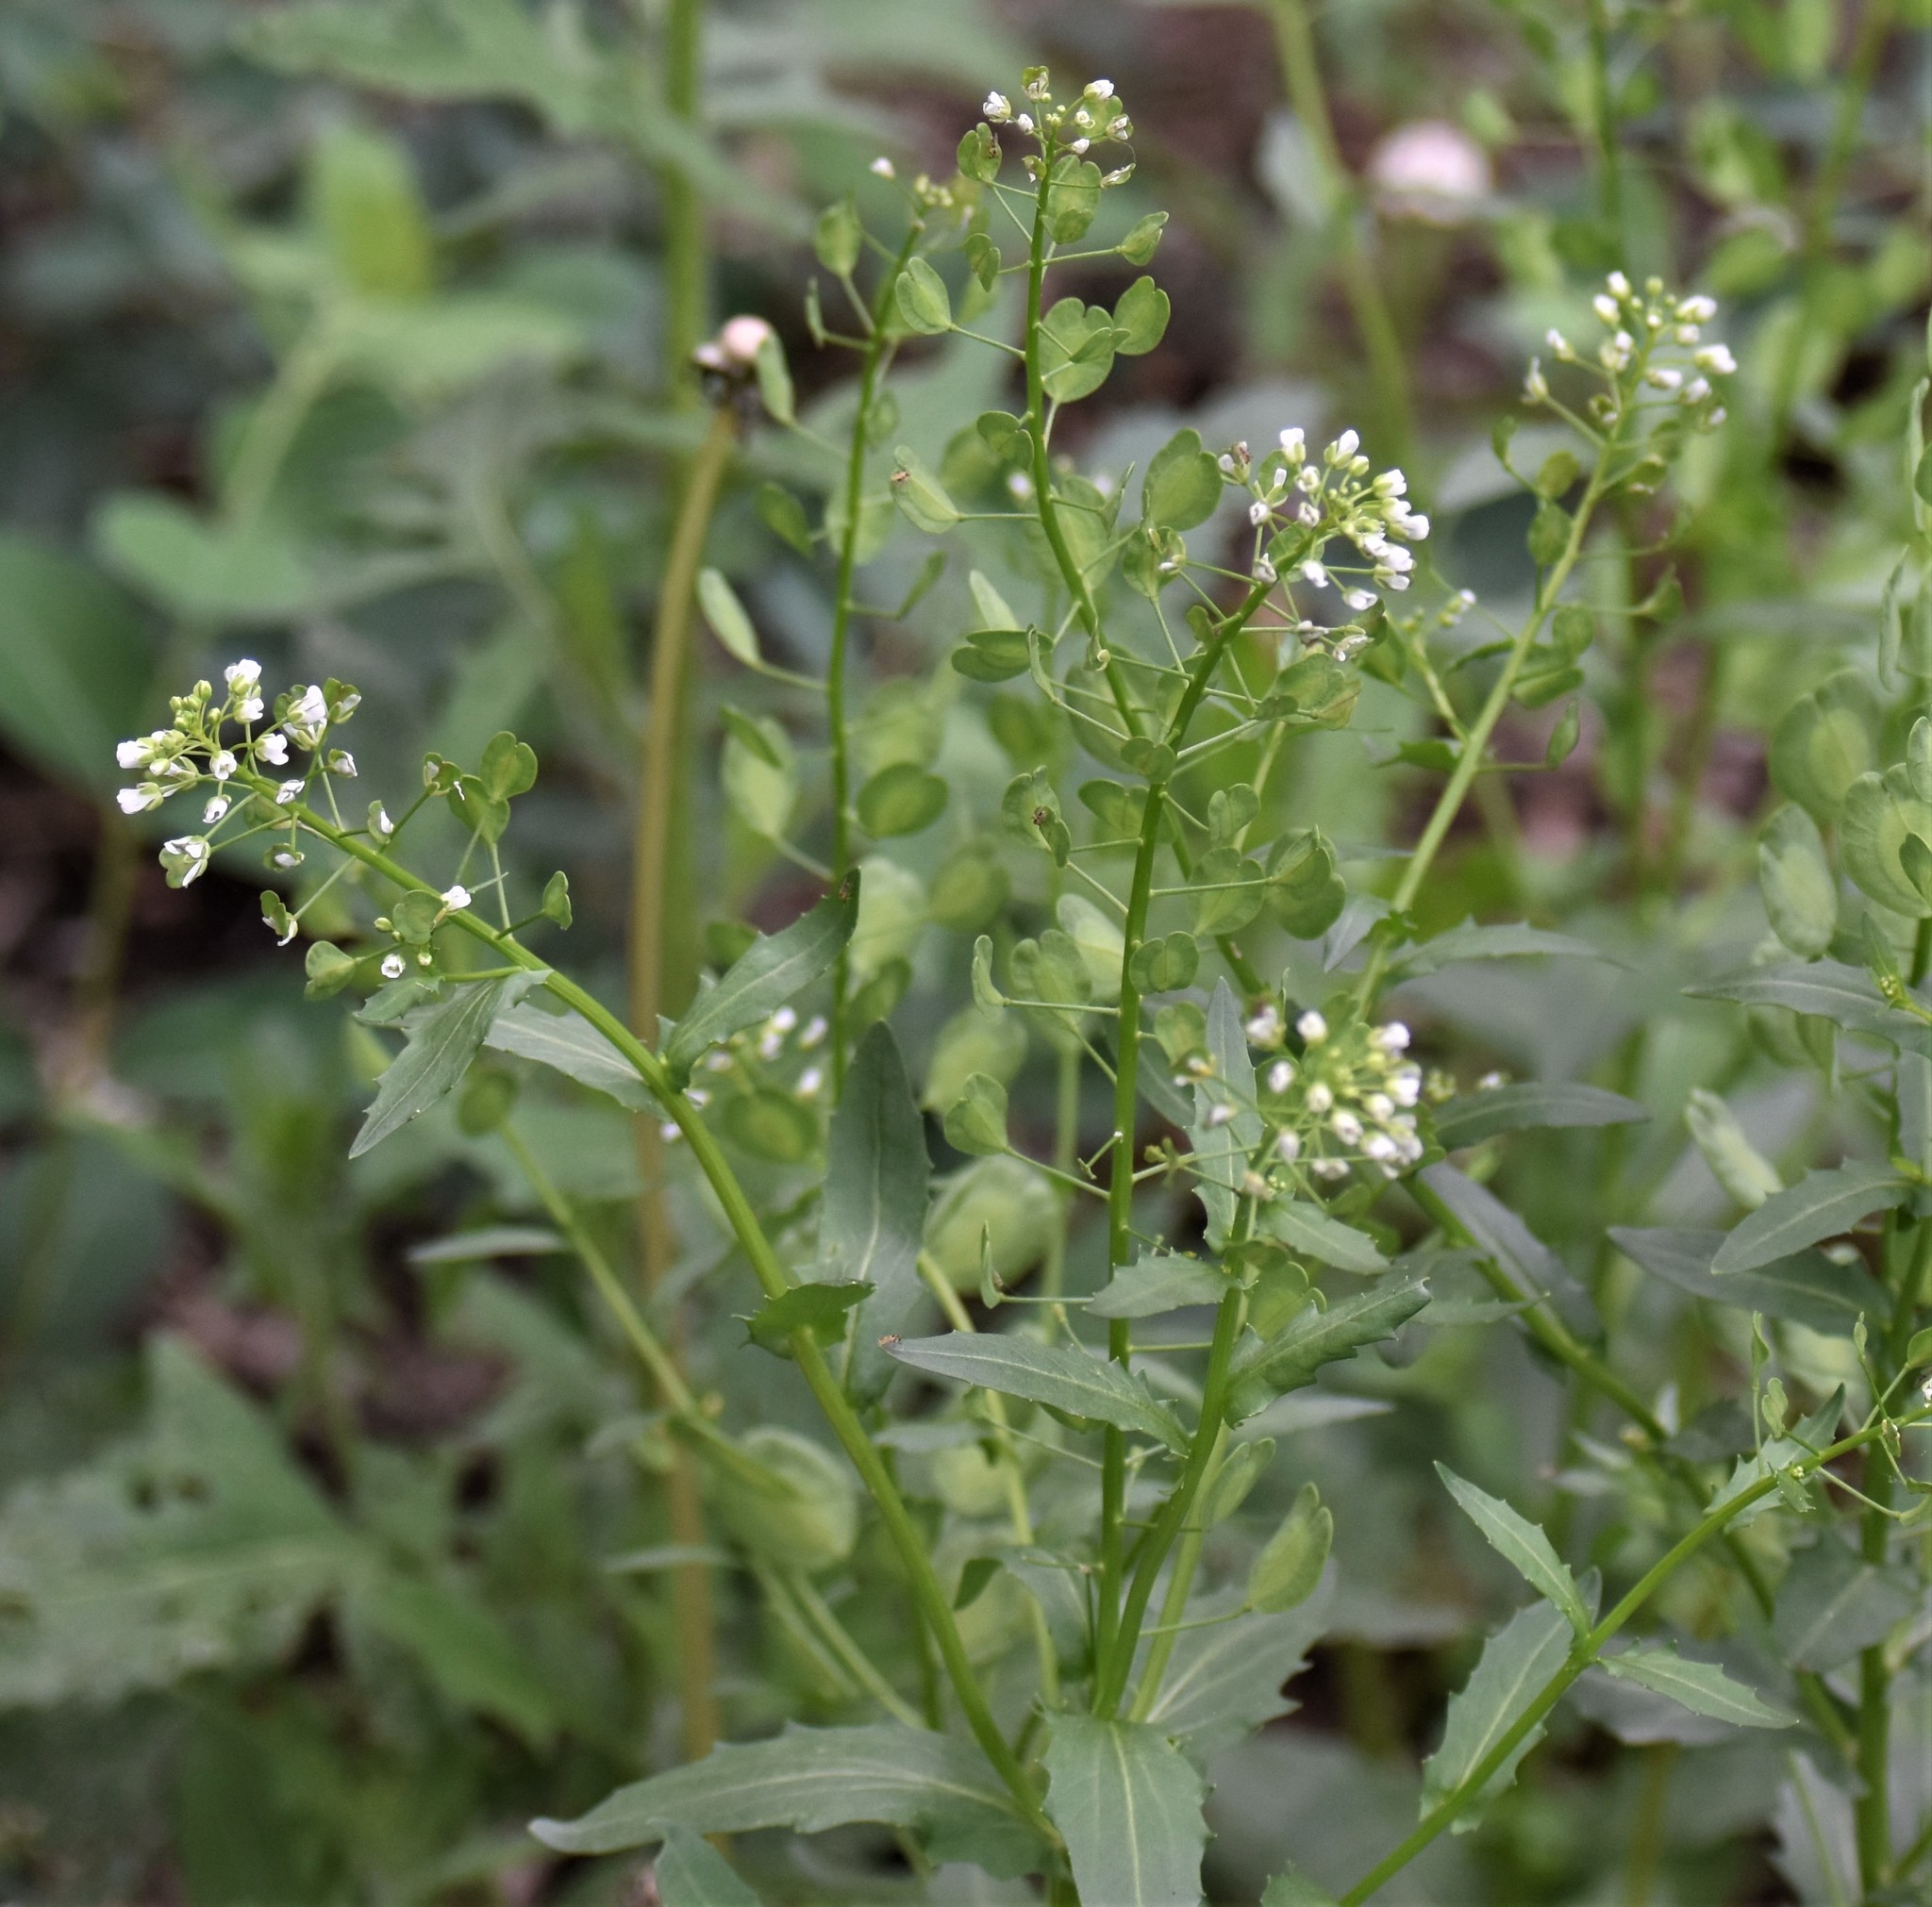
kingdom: Plantae
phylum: Tracheophyta
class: Magnoliopsida
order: Brassicales
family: Brassicaceae
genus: Thlaspi
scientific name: Thlaspi arvense
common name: Field pennycress
